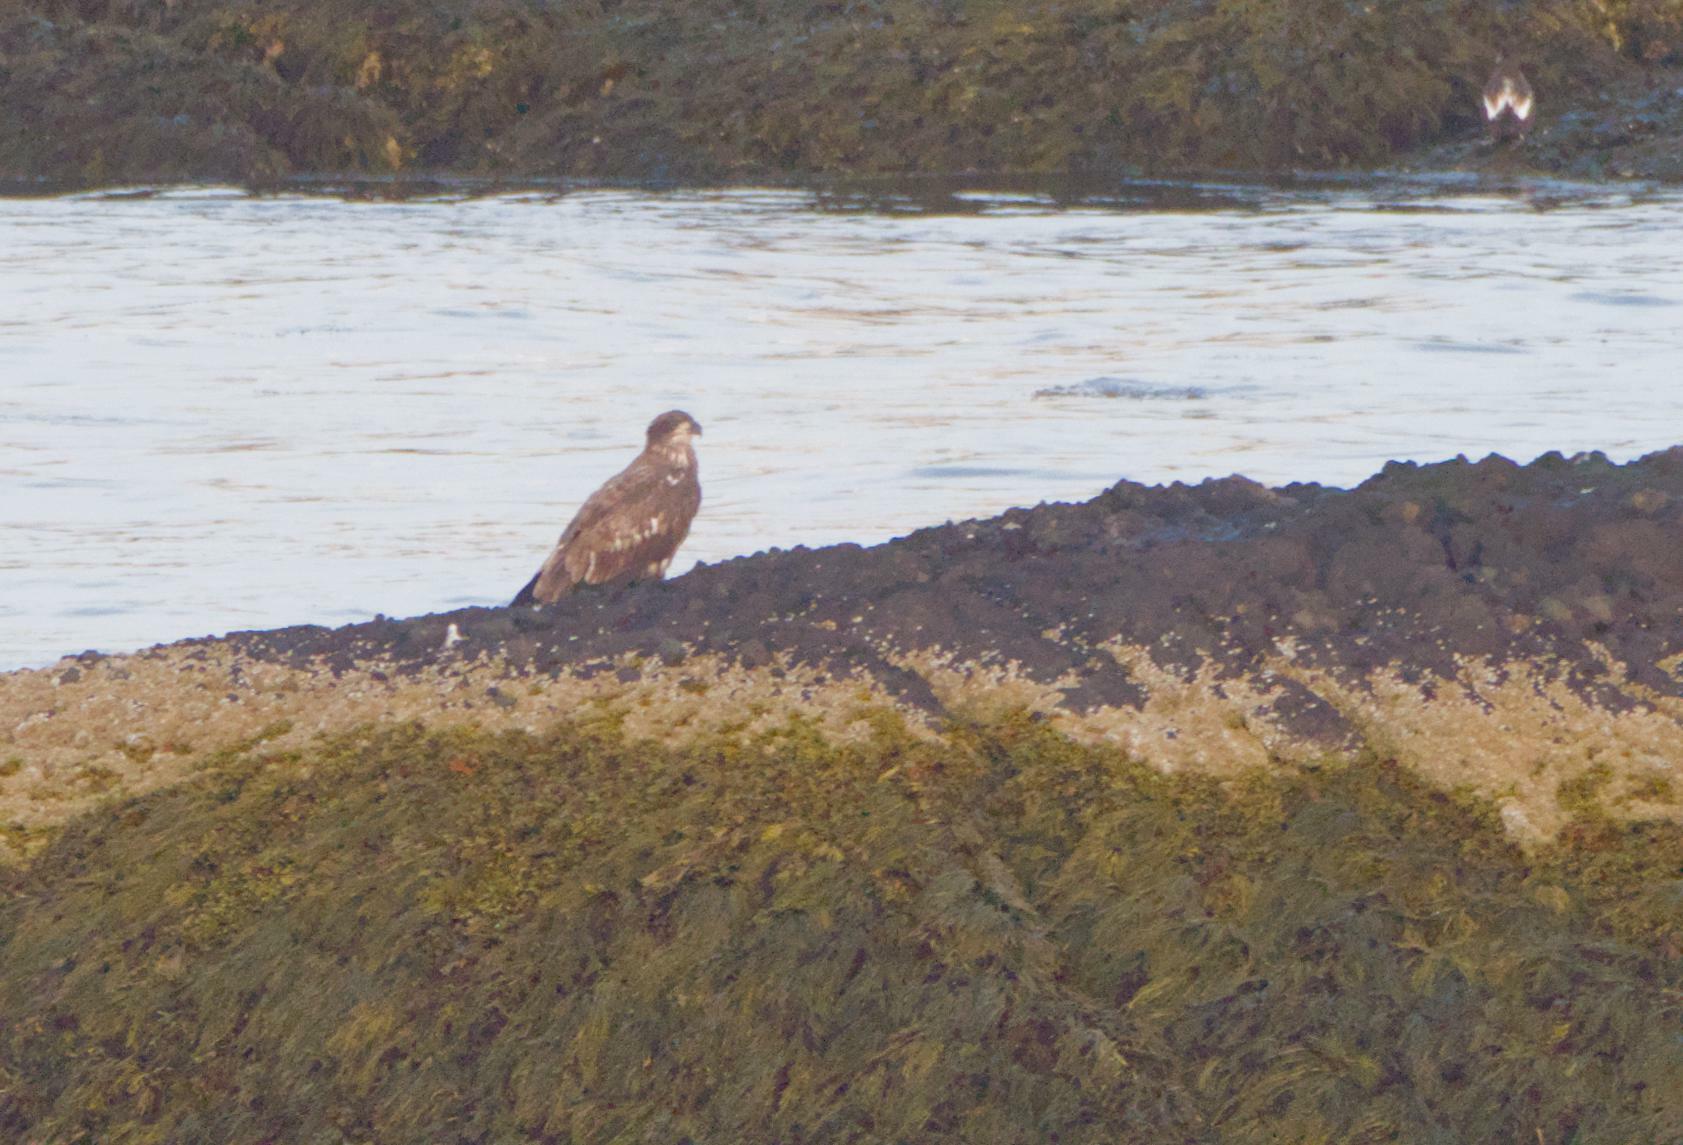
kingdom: Animalia
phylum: Chordata
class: Aves
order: Accipitriformes
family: Accipitridae
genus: Haliaeetus
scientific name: Haliaeetus leucocephalus
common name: Bald eagle
